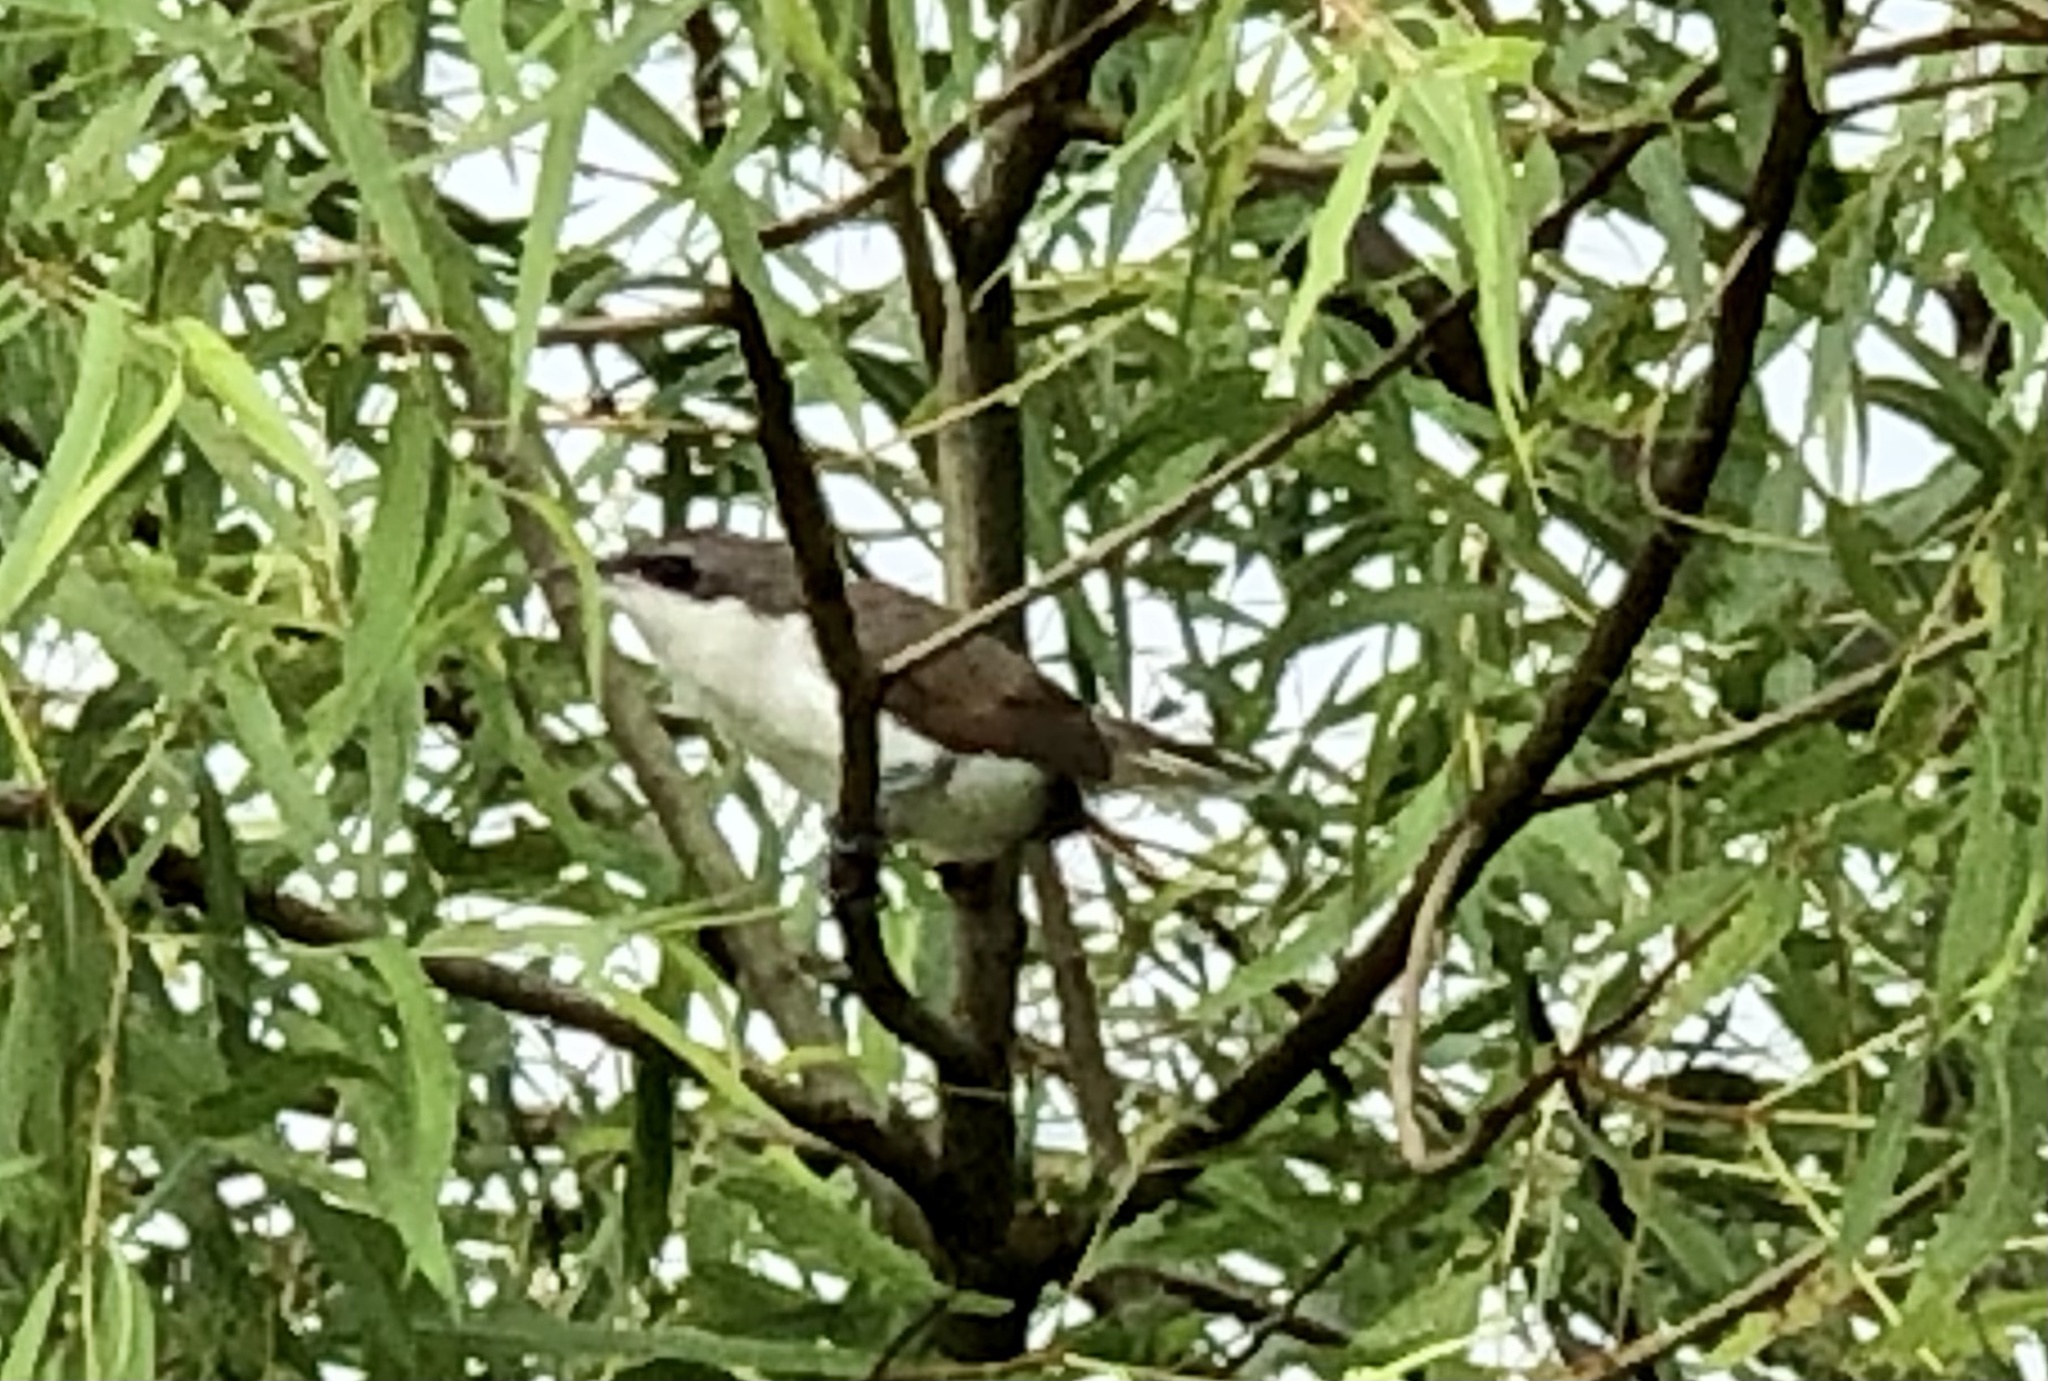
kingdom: Animalia
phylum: Chordata
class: Aves
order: Cuculiformes
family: Cuculidae
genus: Coccyzus
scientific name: Coccyzus americanus
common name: Yellow-billed cuckoo
